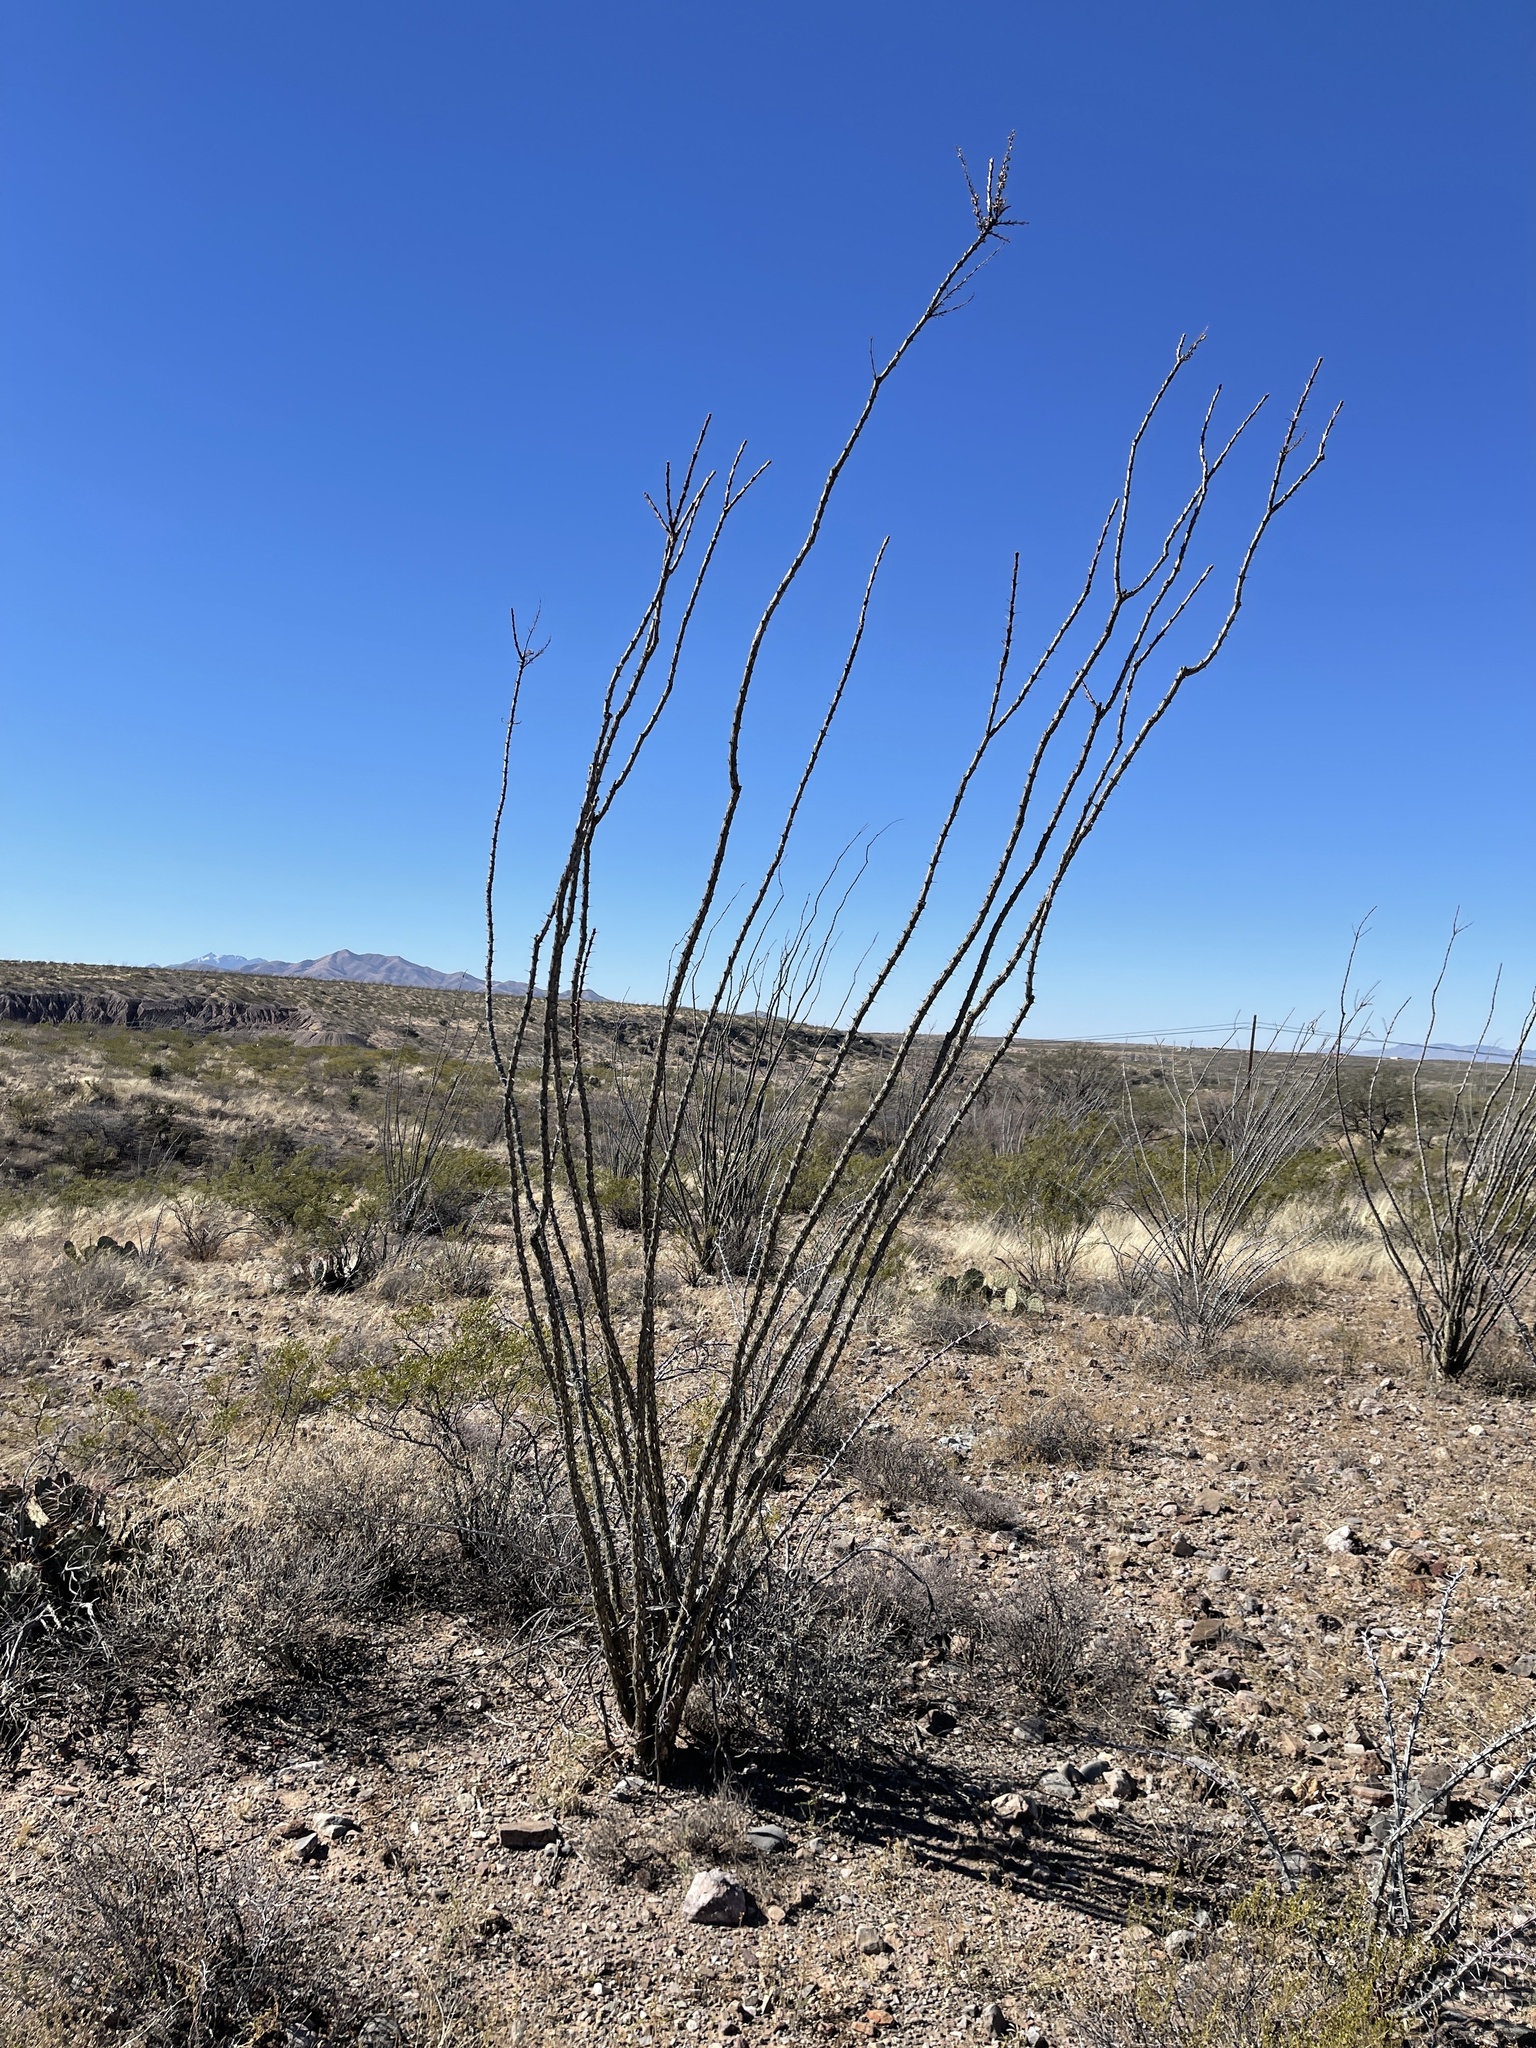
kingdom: Plantae
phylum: Tracheophyta
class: Magnoliopsida
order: Ericales
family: Fouquieriaceae
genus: Fouquieria
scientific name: Fouquieria splendens
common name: Vine-cactus
